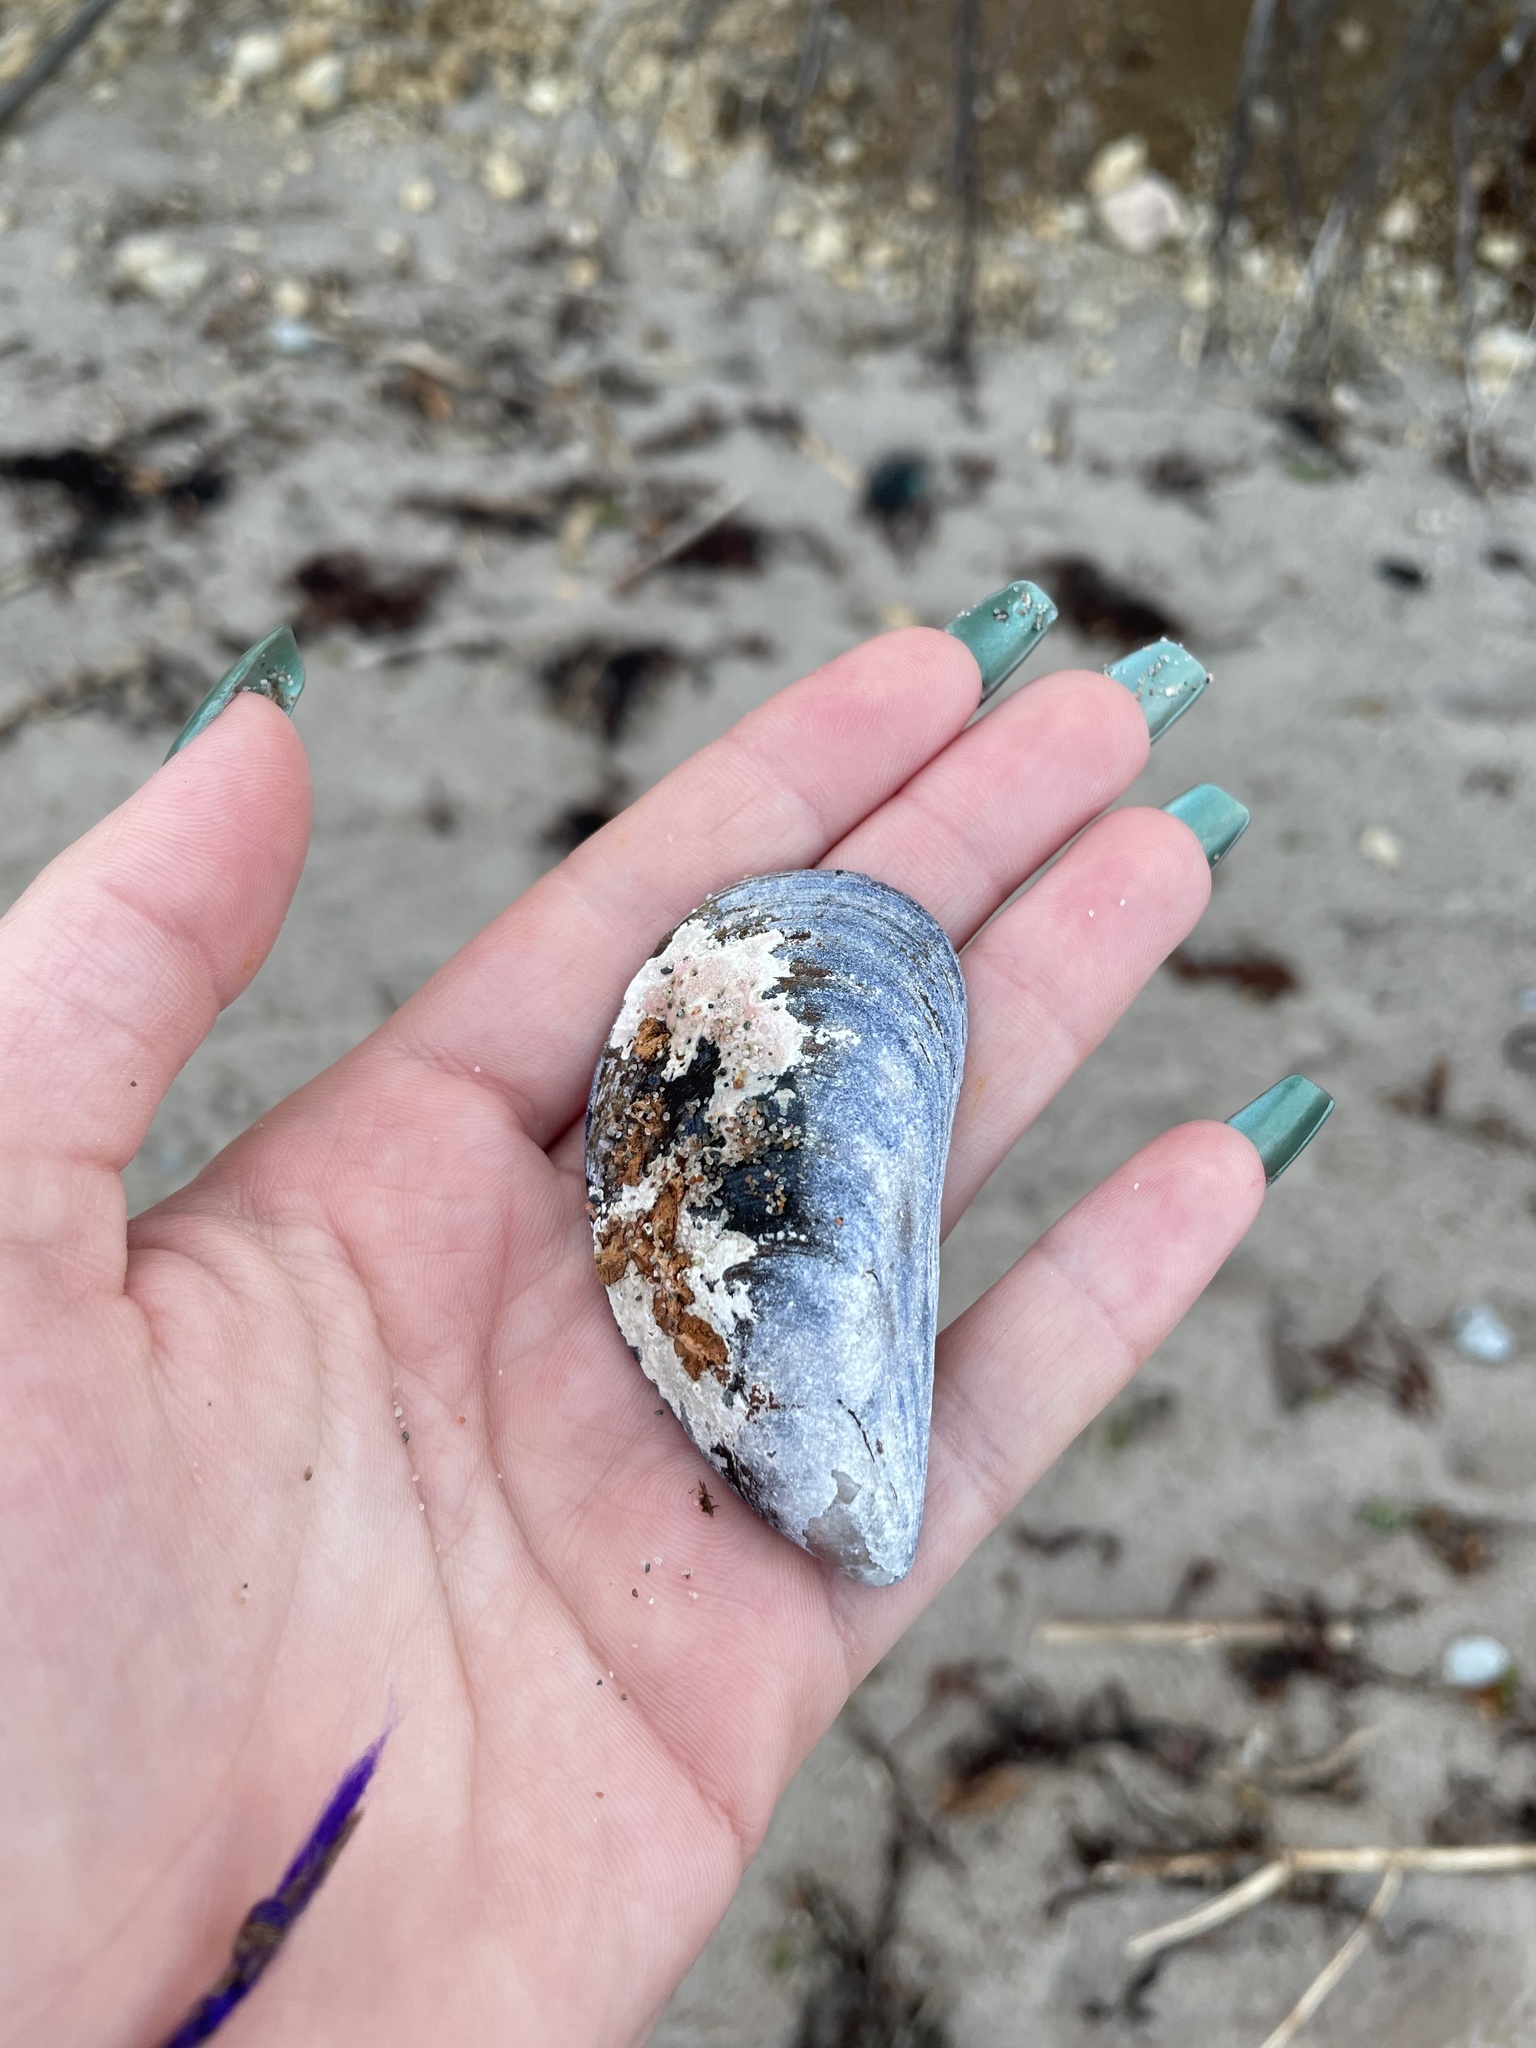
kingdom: Animalia
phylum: Mollusca
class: Bivalvia
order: Mytilida
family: Mytilidae
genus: Mytilus
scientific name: Mytilus edulis
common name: Blue mussel
